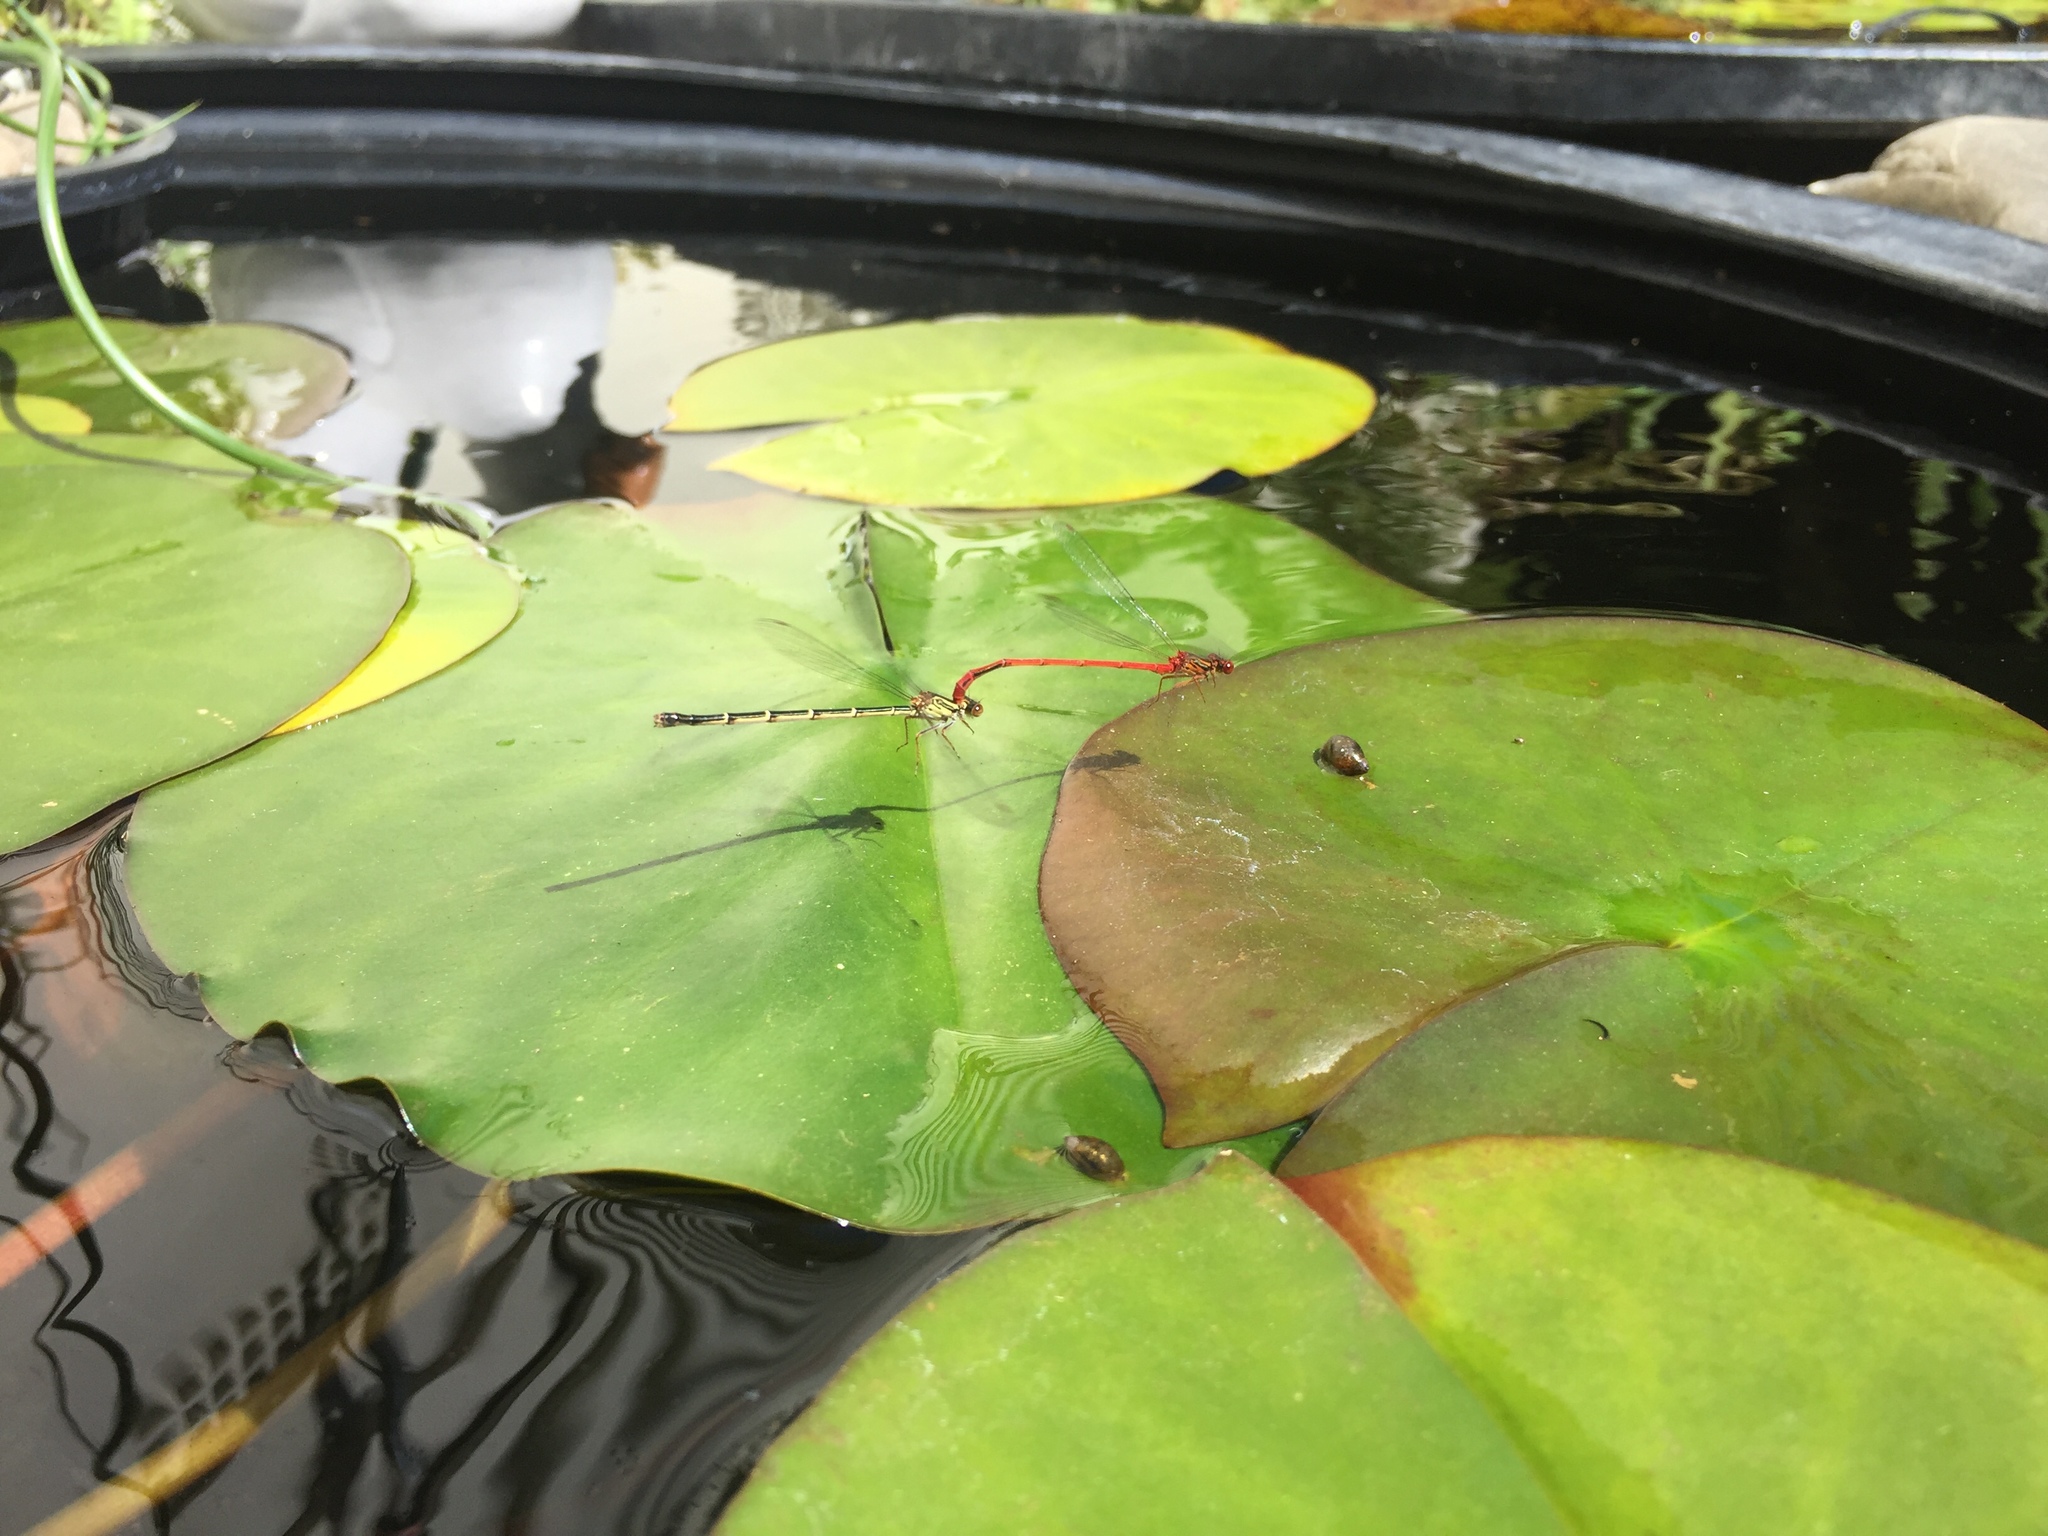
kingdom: Animalia
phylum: Arthropoda
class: Insecta
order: Odonata
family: Coenagrionidae
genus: Xanthocnemis
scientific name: Xanthocnemis zealandica
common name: Common redcoat damselfly
